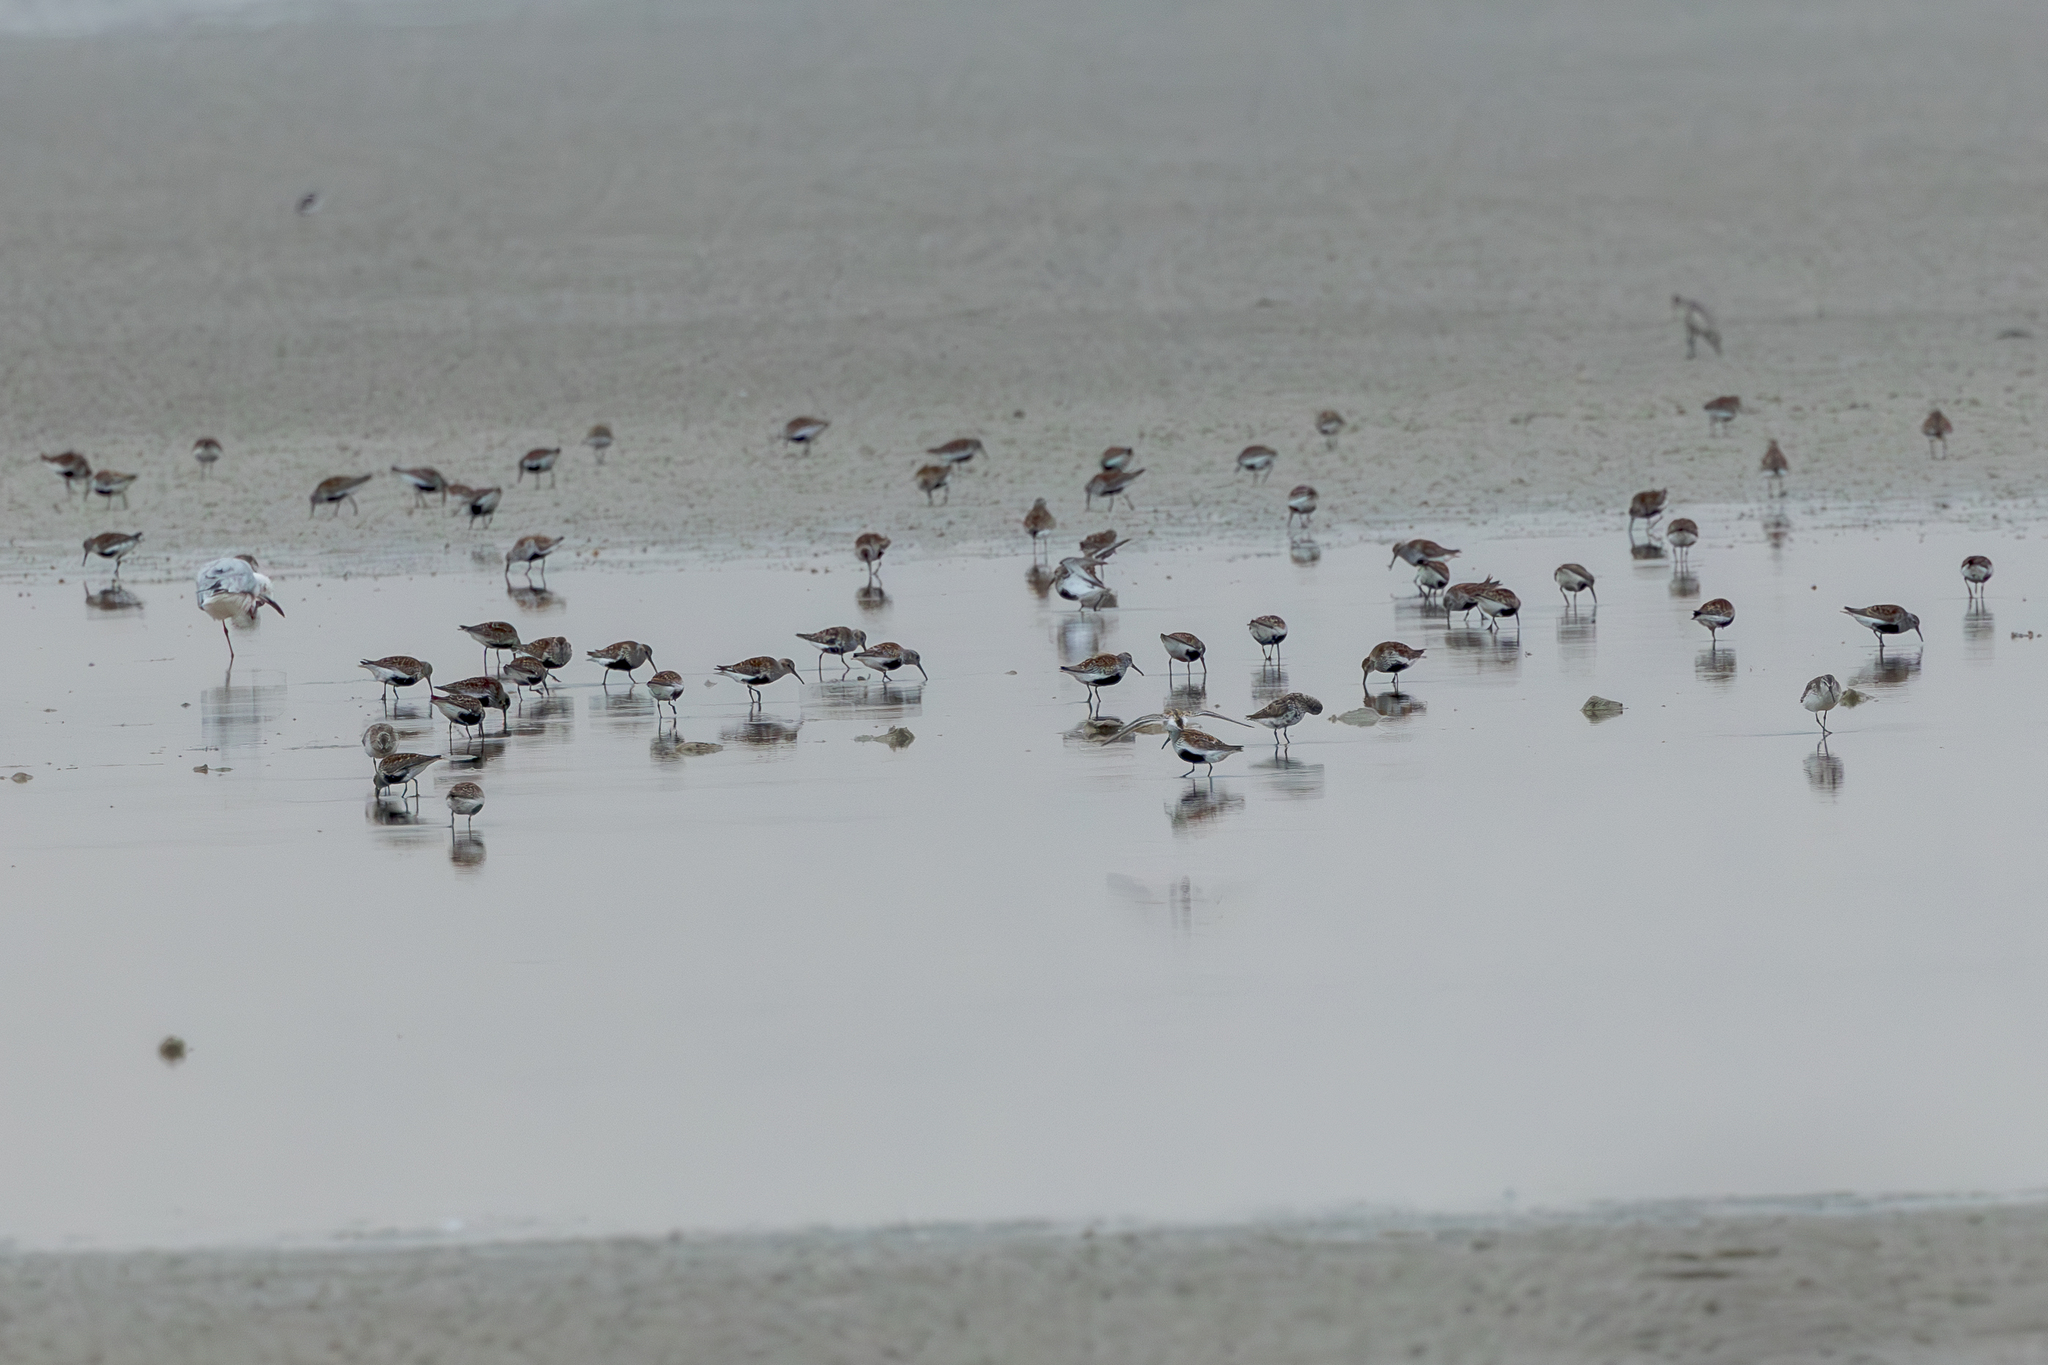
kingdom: Animalia
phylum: Chordata
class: Aves
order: Charadriiformes
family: Scolopacidae
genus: Calidris
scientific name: Calidris alpina
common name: Dunlin
